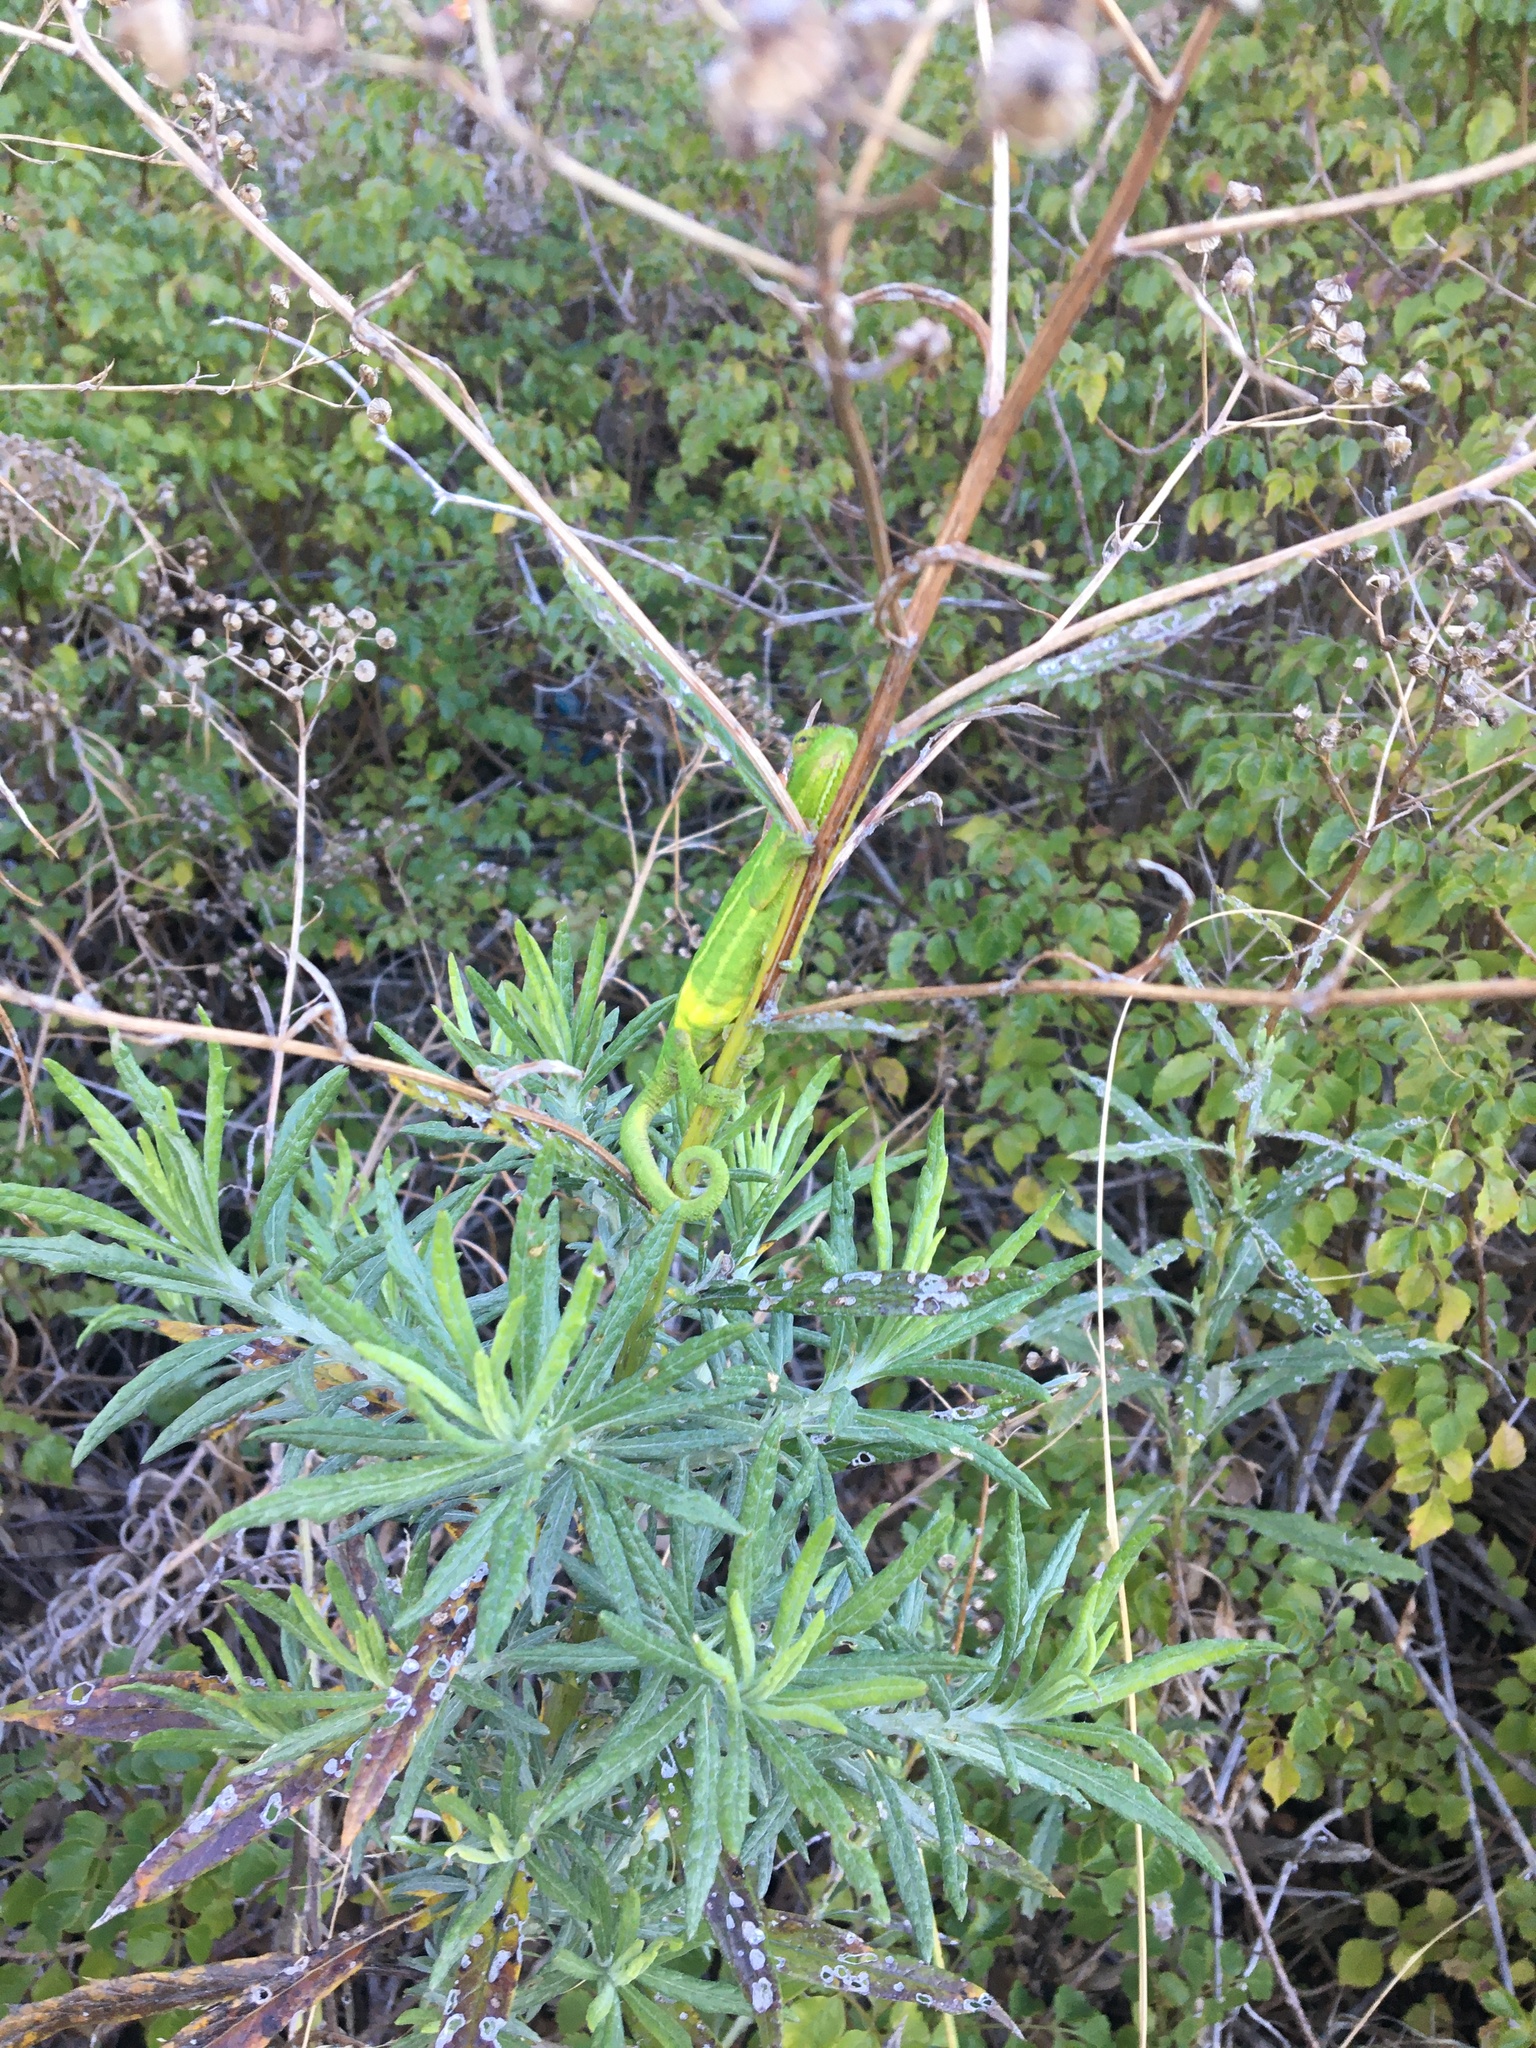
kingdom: Animalia
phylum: Chordata
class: Squamata
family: Chamaeleonidae
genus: Bradypodion
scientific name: Bradypodion pumilum
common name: Cape dwarf chameleon
